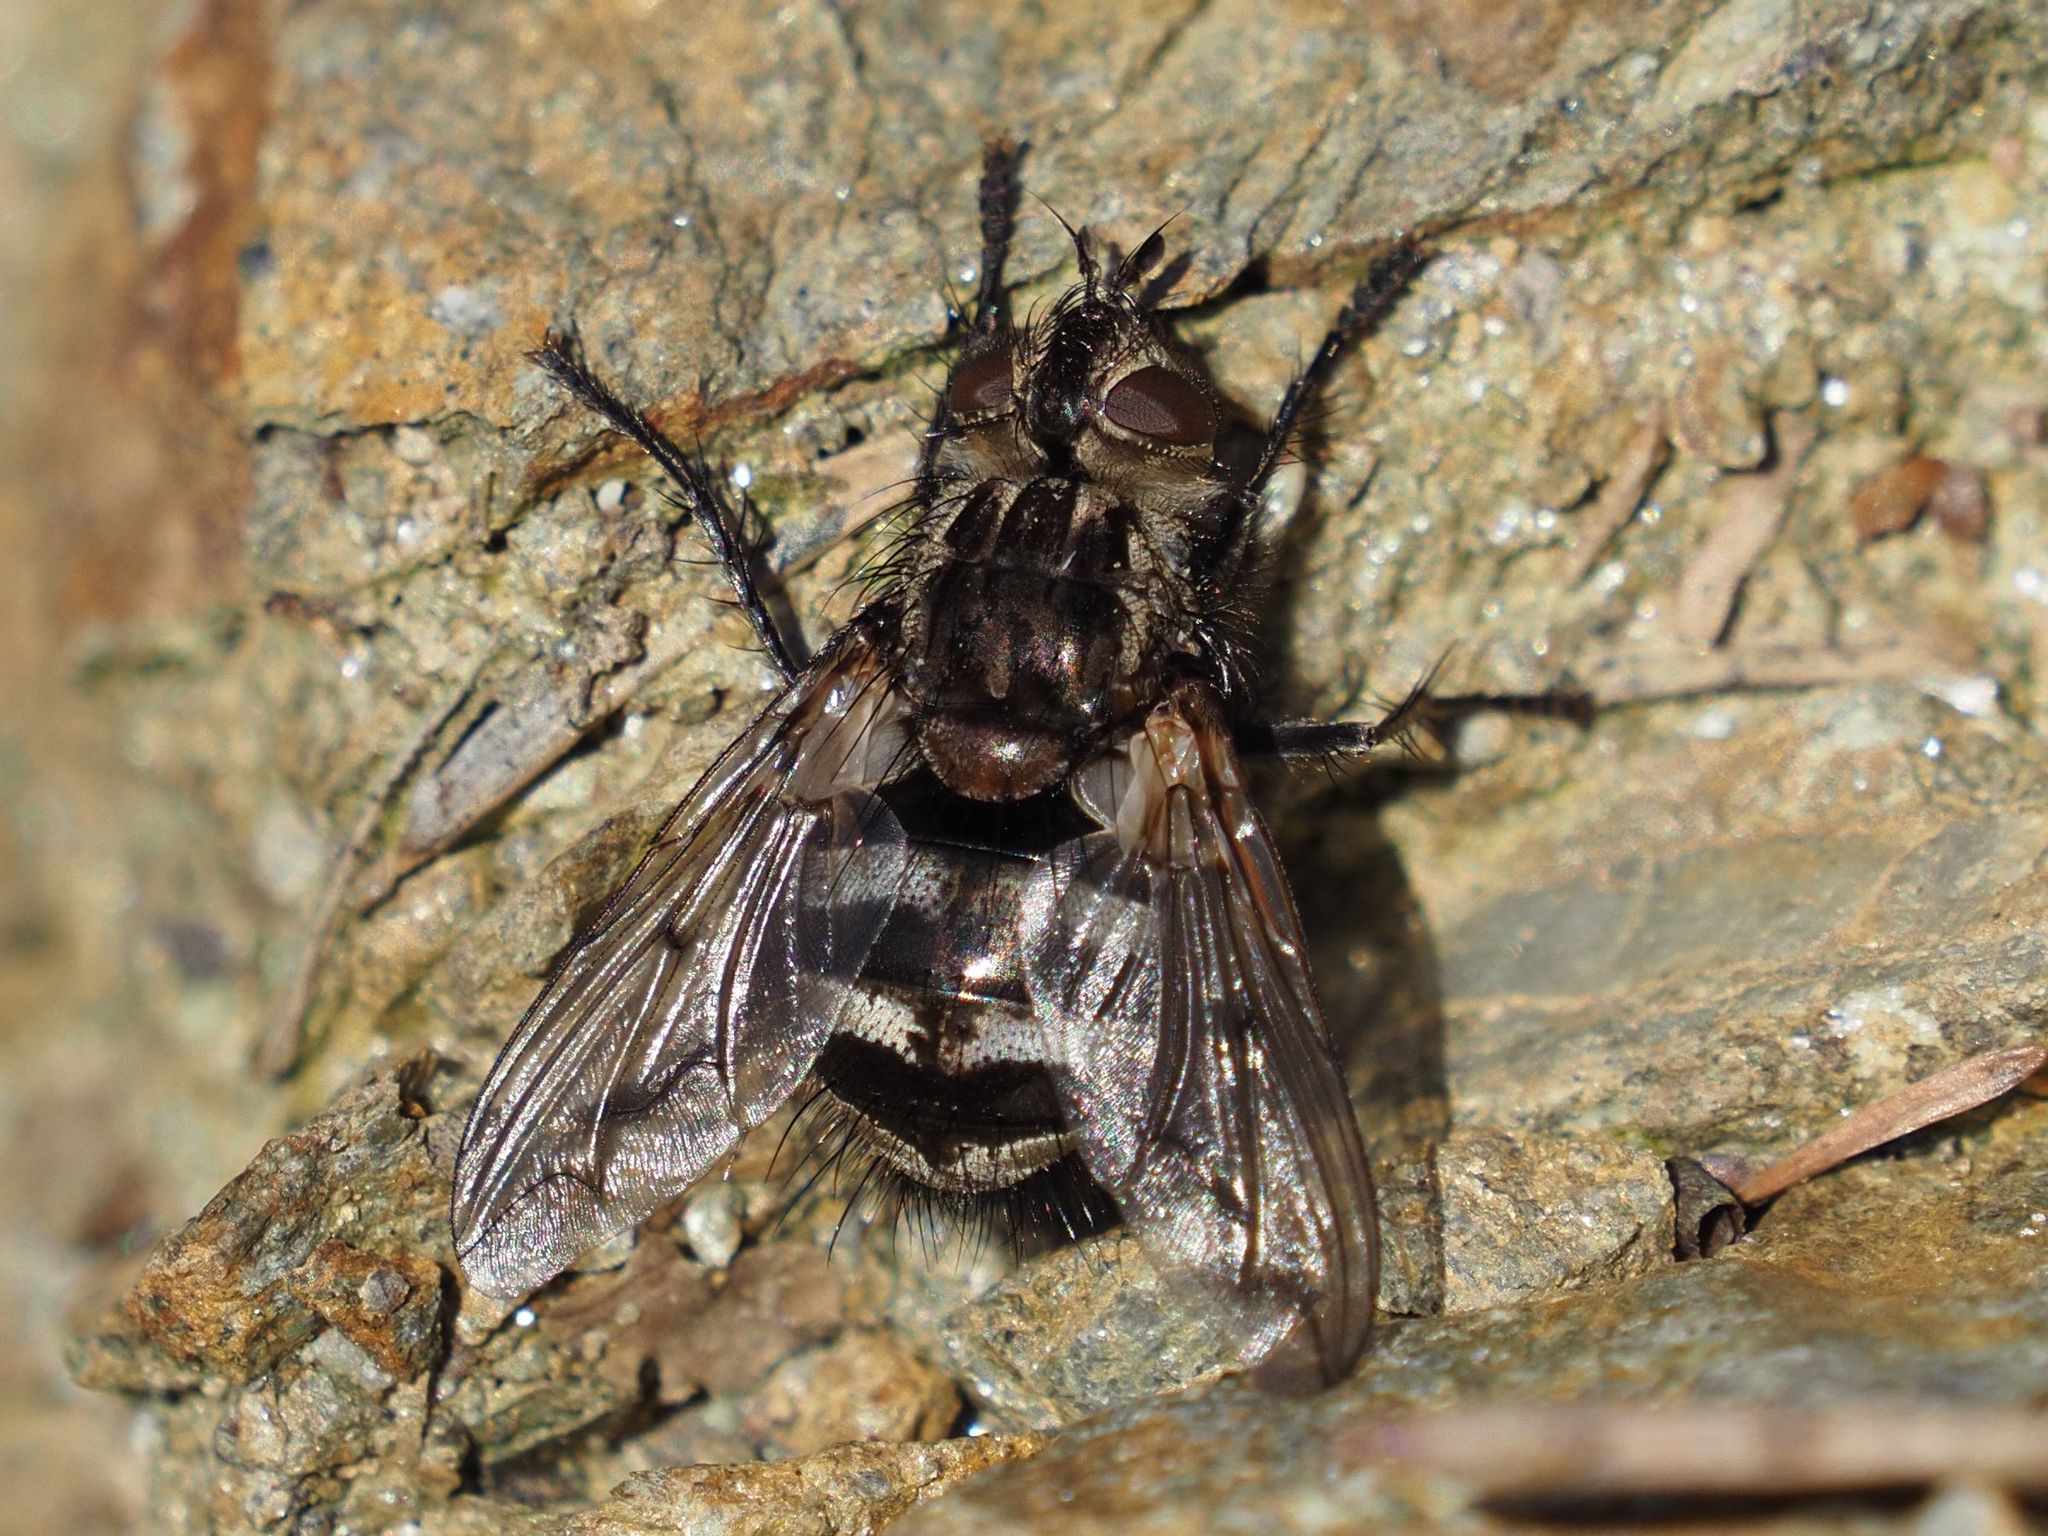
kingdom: Animalia
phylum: Arthropoda
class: Insecta
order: Diptera
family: Tachinidae
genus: Panzeria
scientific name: Panzeria puparum
